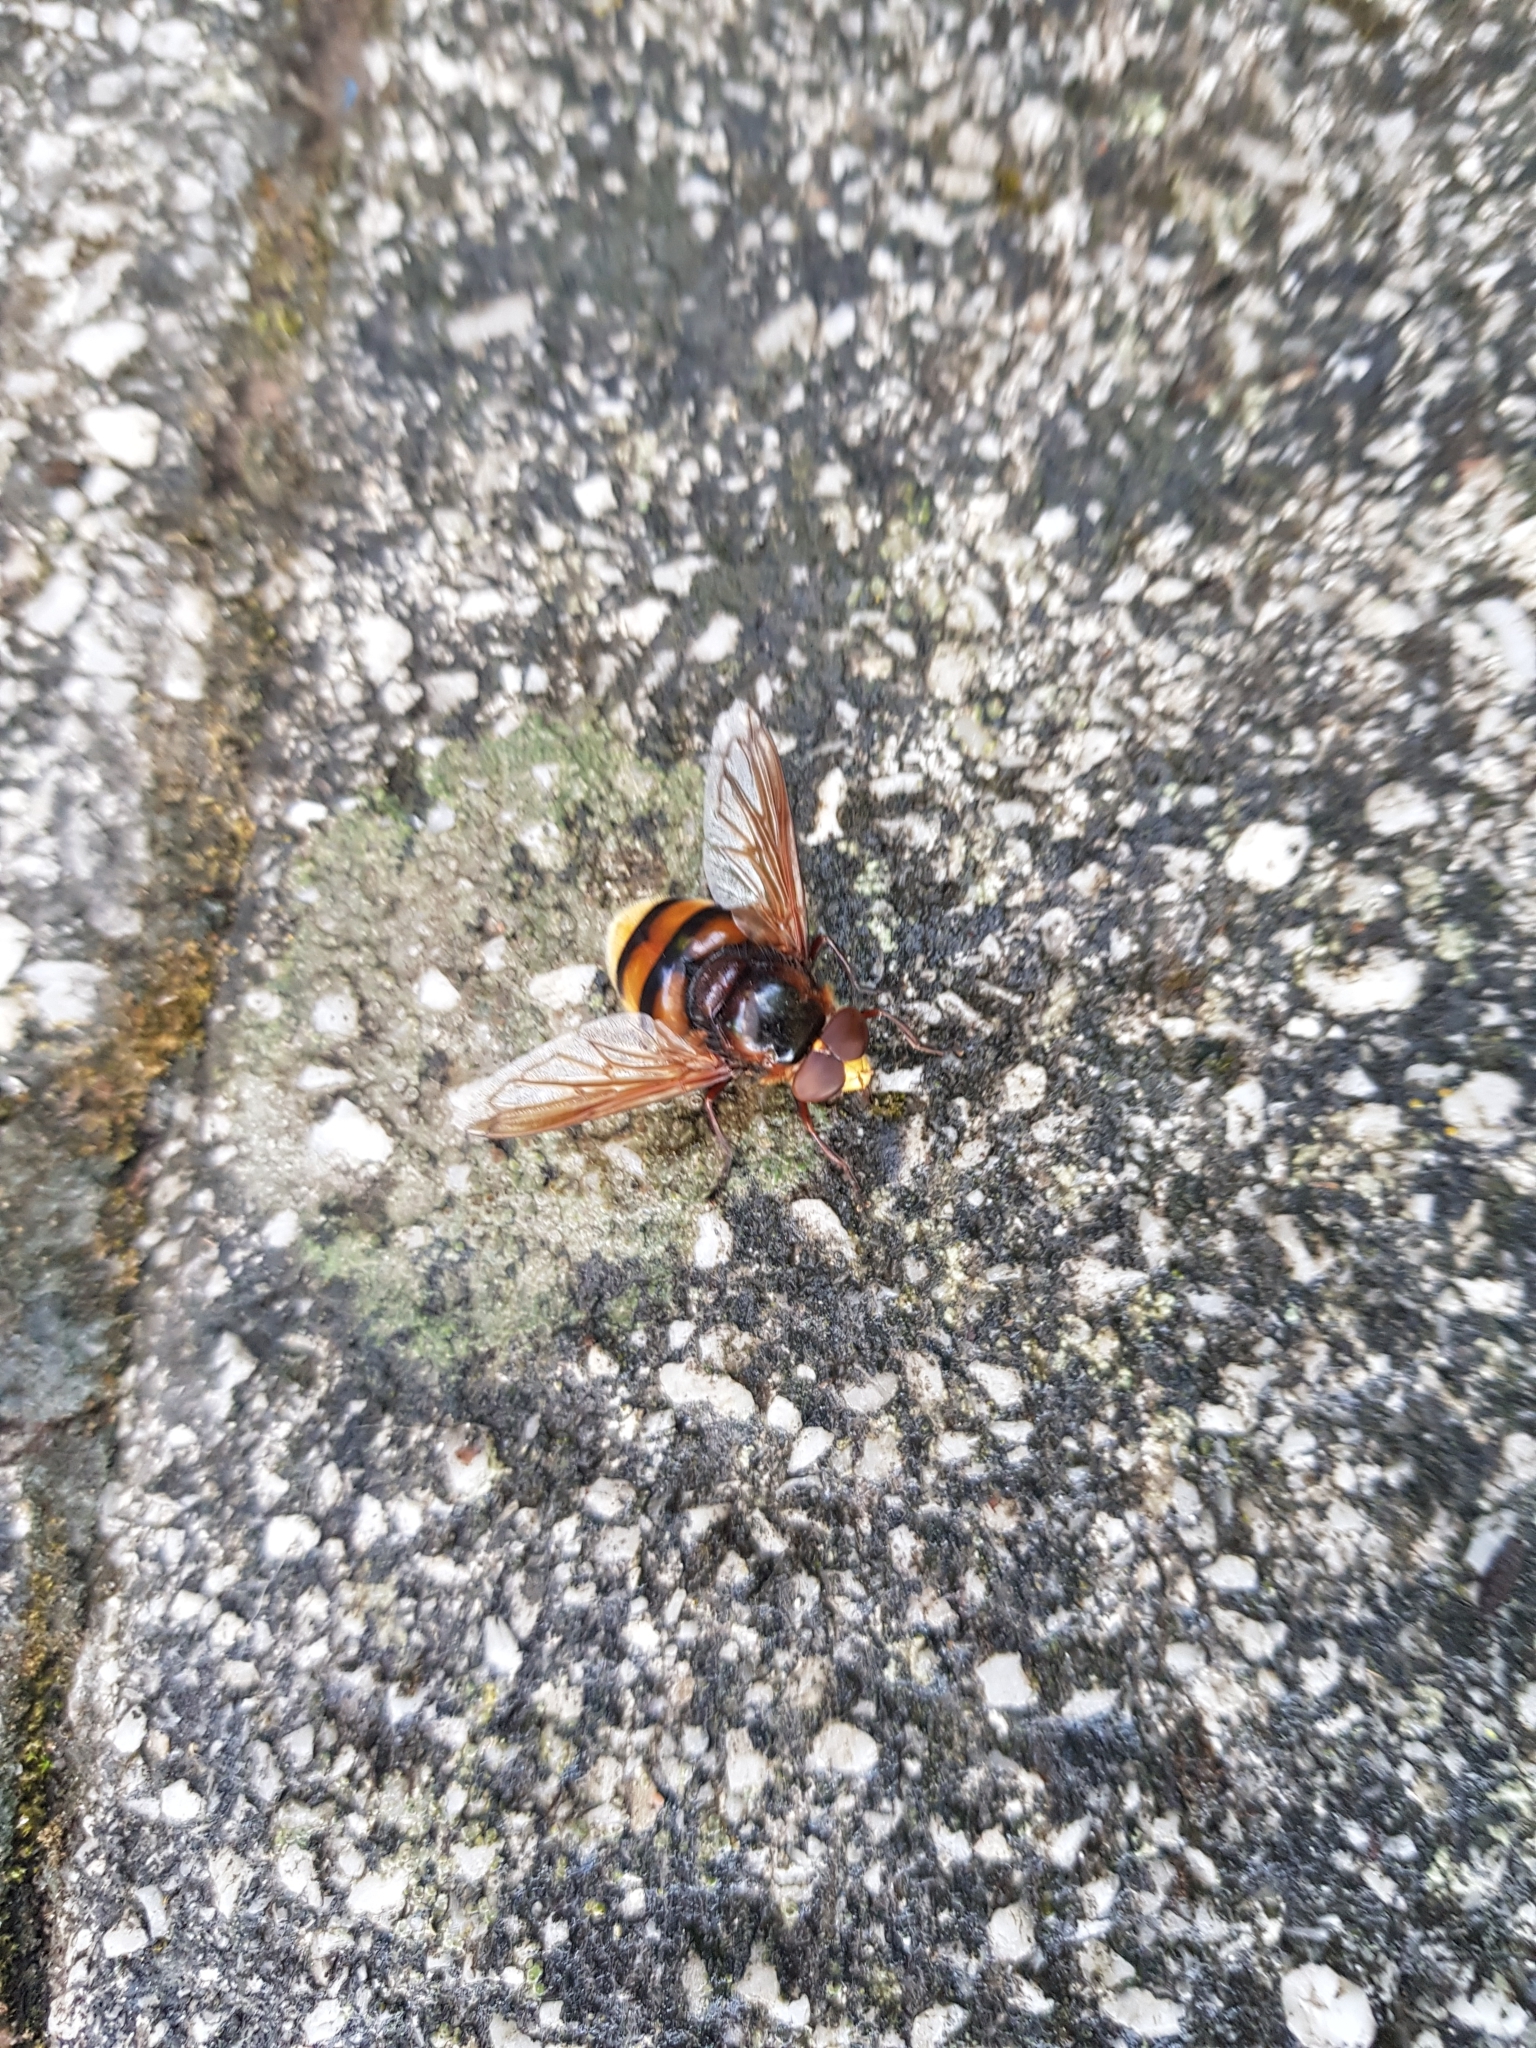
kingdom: Animalia
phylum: Arthropoda
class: Insecta
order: Diptera
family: Syrphidae
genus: Volucella
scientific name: Volucella zonaria
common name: Hornet hoverfly
